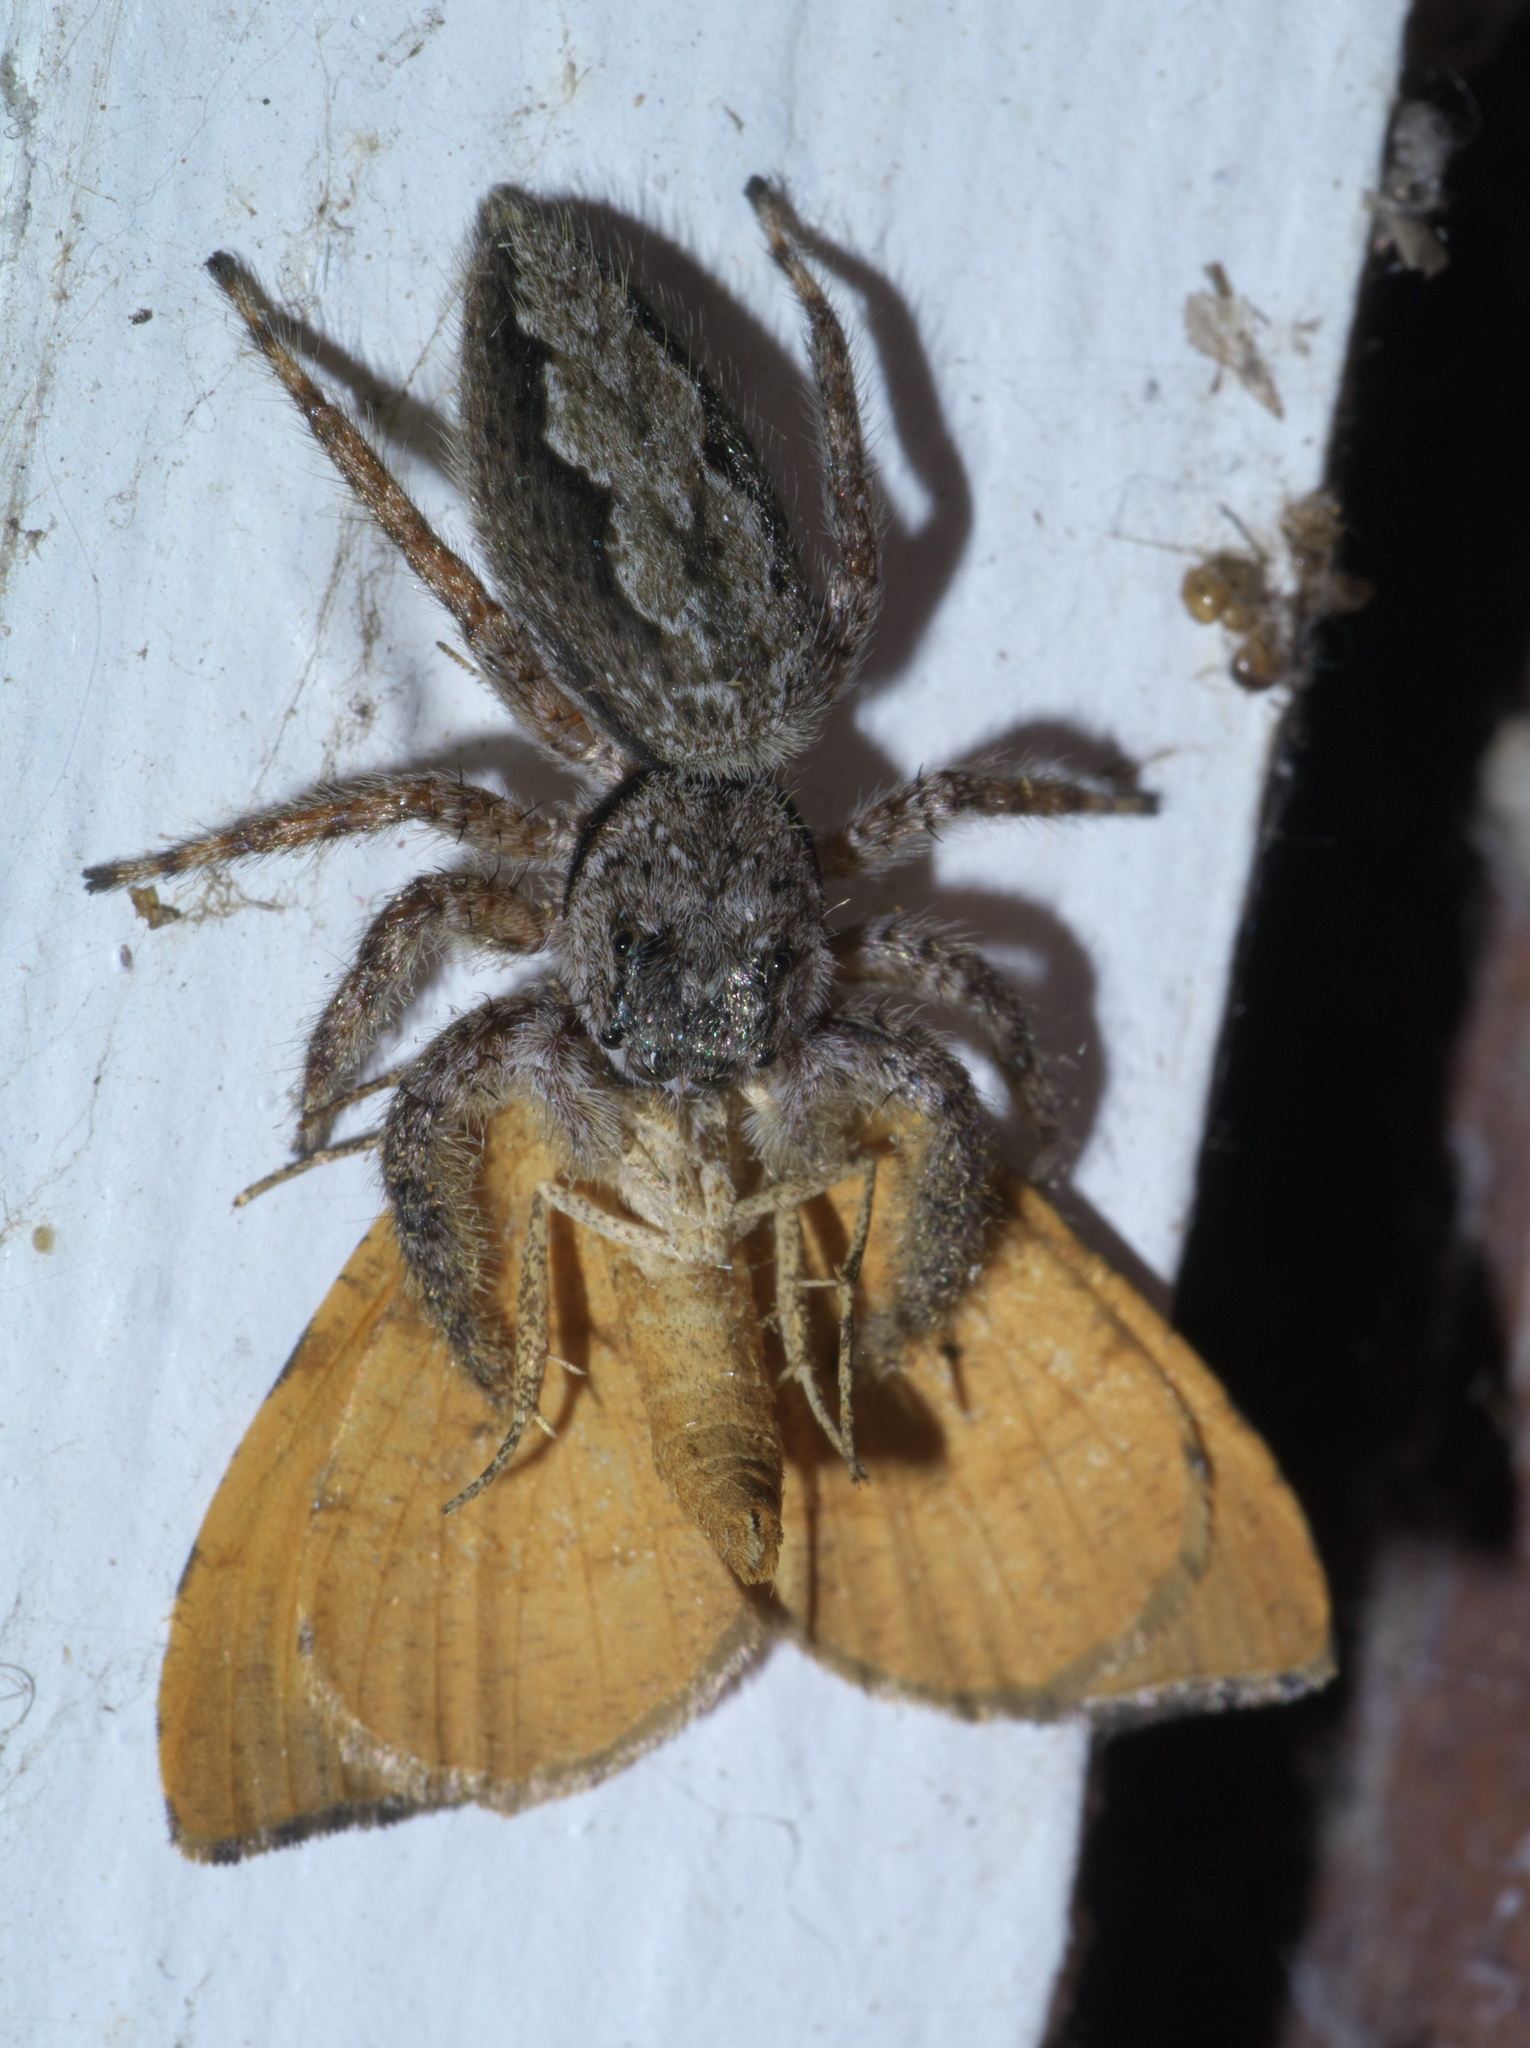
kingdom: Animalia
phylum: Arthropoda
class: Arachnida
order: Araneae
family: Salticidae
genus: Platycryptus
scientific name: Platycryptus undatus
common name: Tan jumping spider
